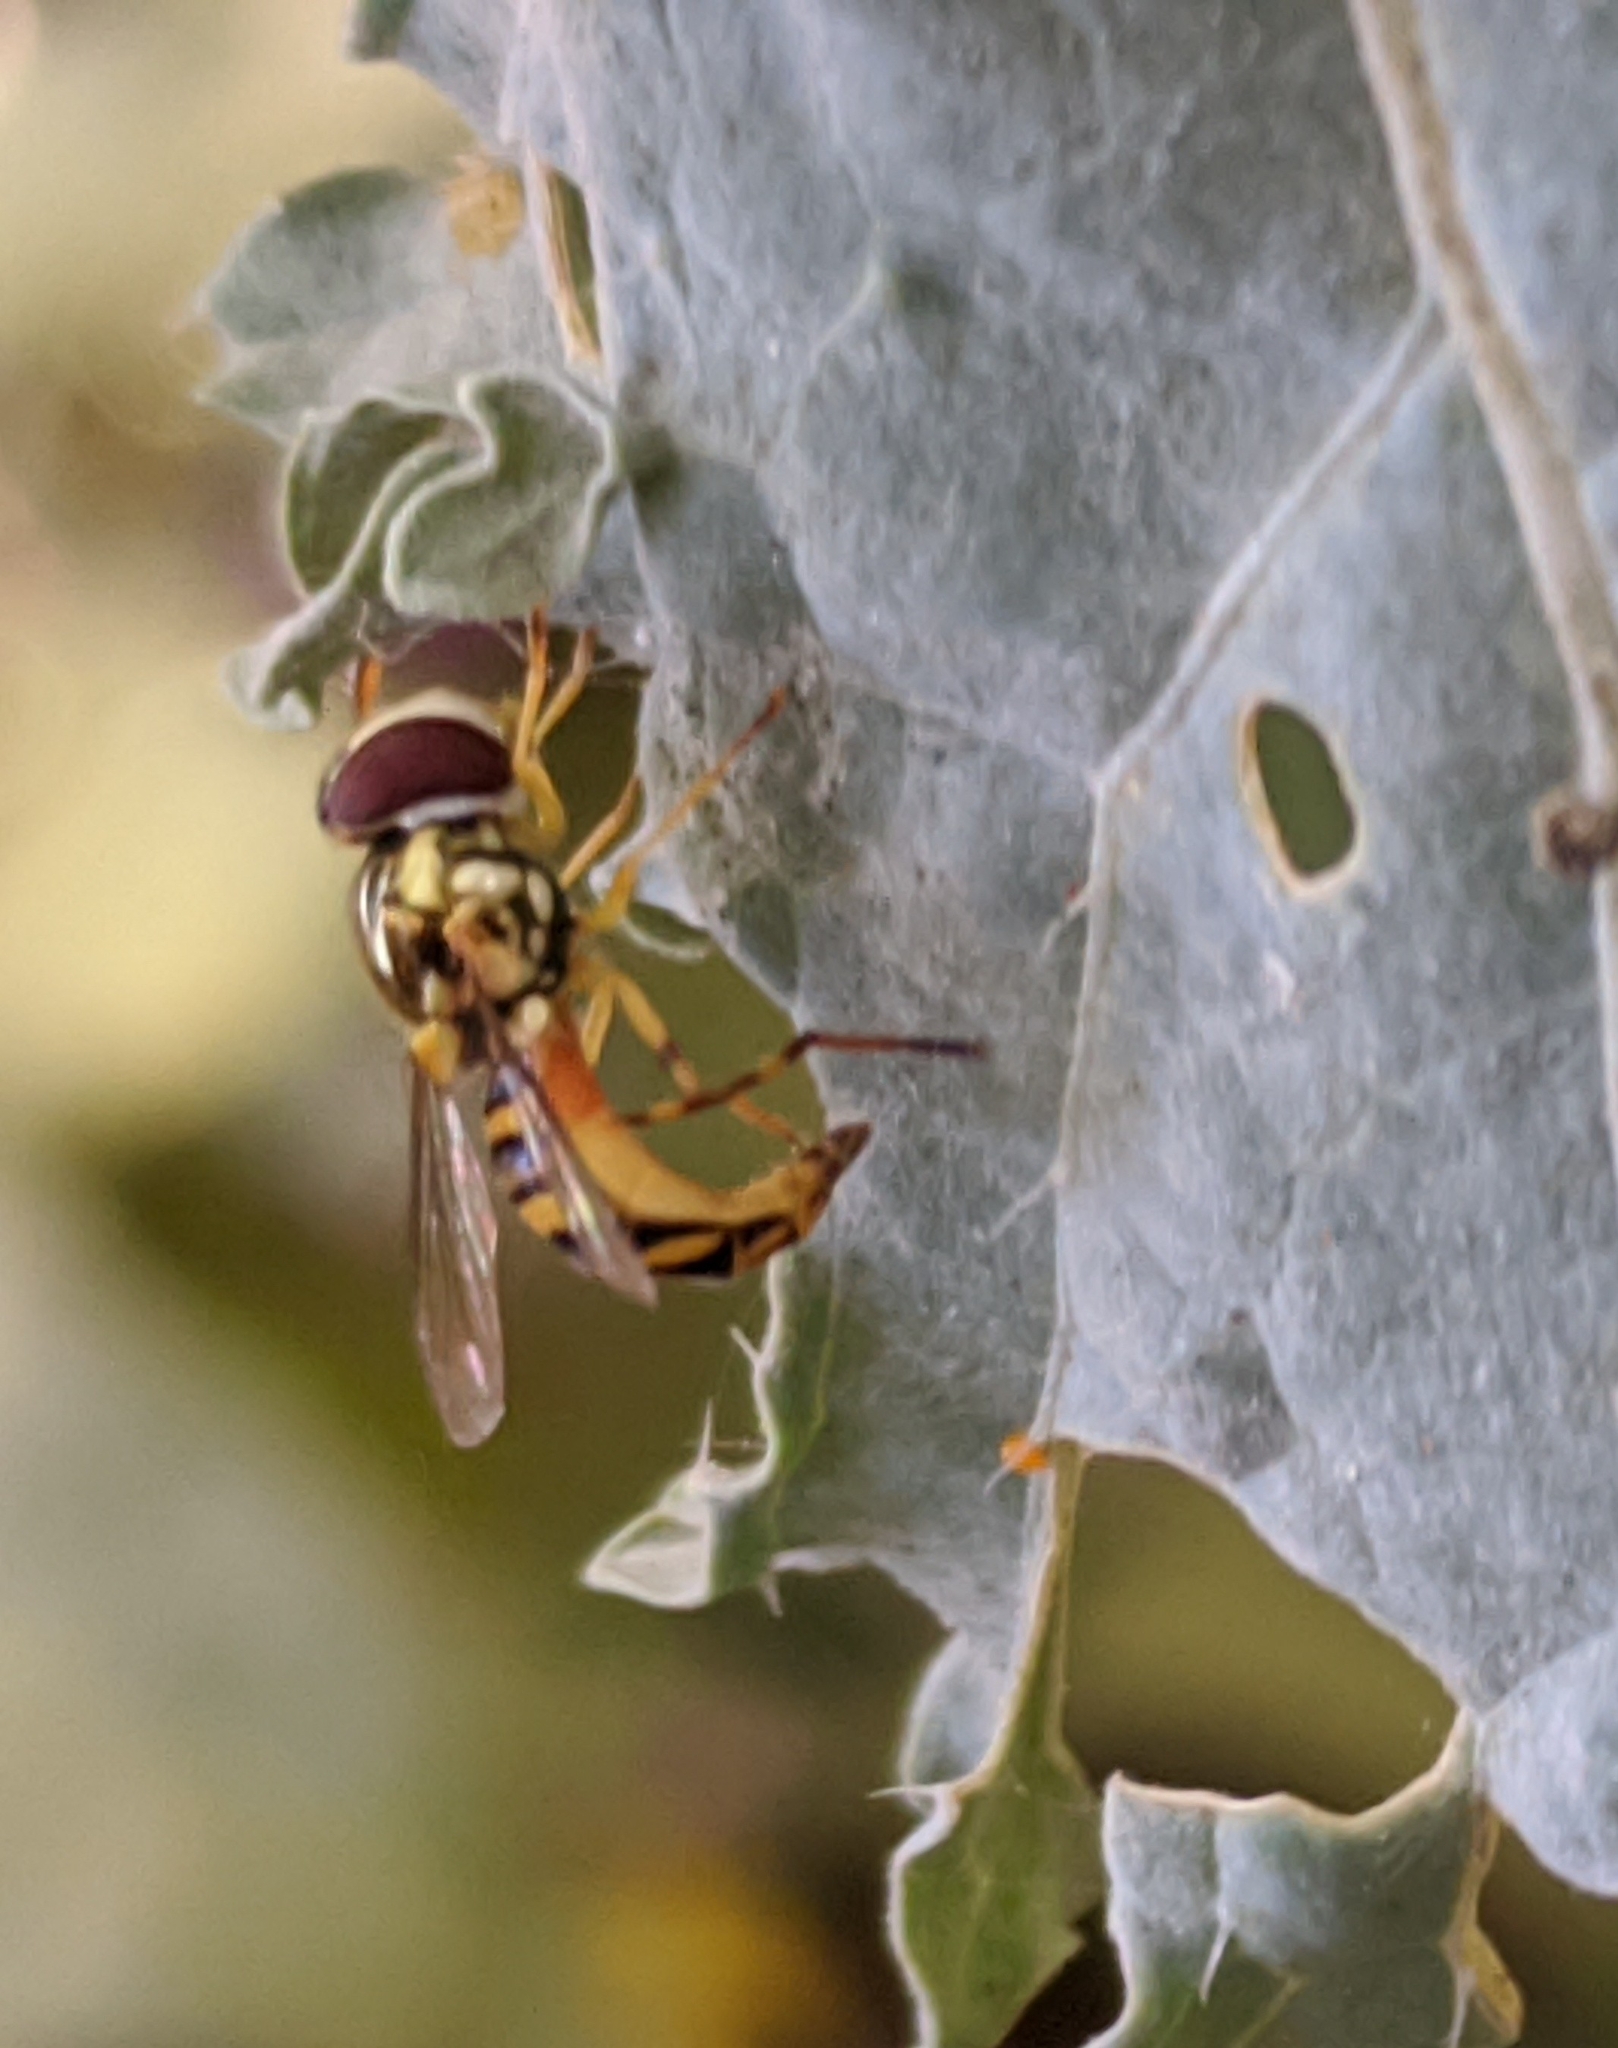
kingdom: Animalia
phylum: Arthropoda
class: Insecta
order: Diptera
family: Syrphidae
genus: Allograpta
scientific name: Allograpta obliqua
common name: Common oblique syrphid
